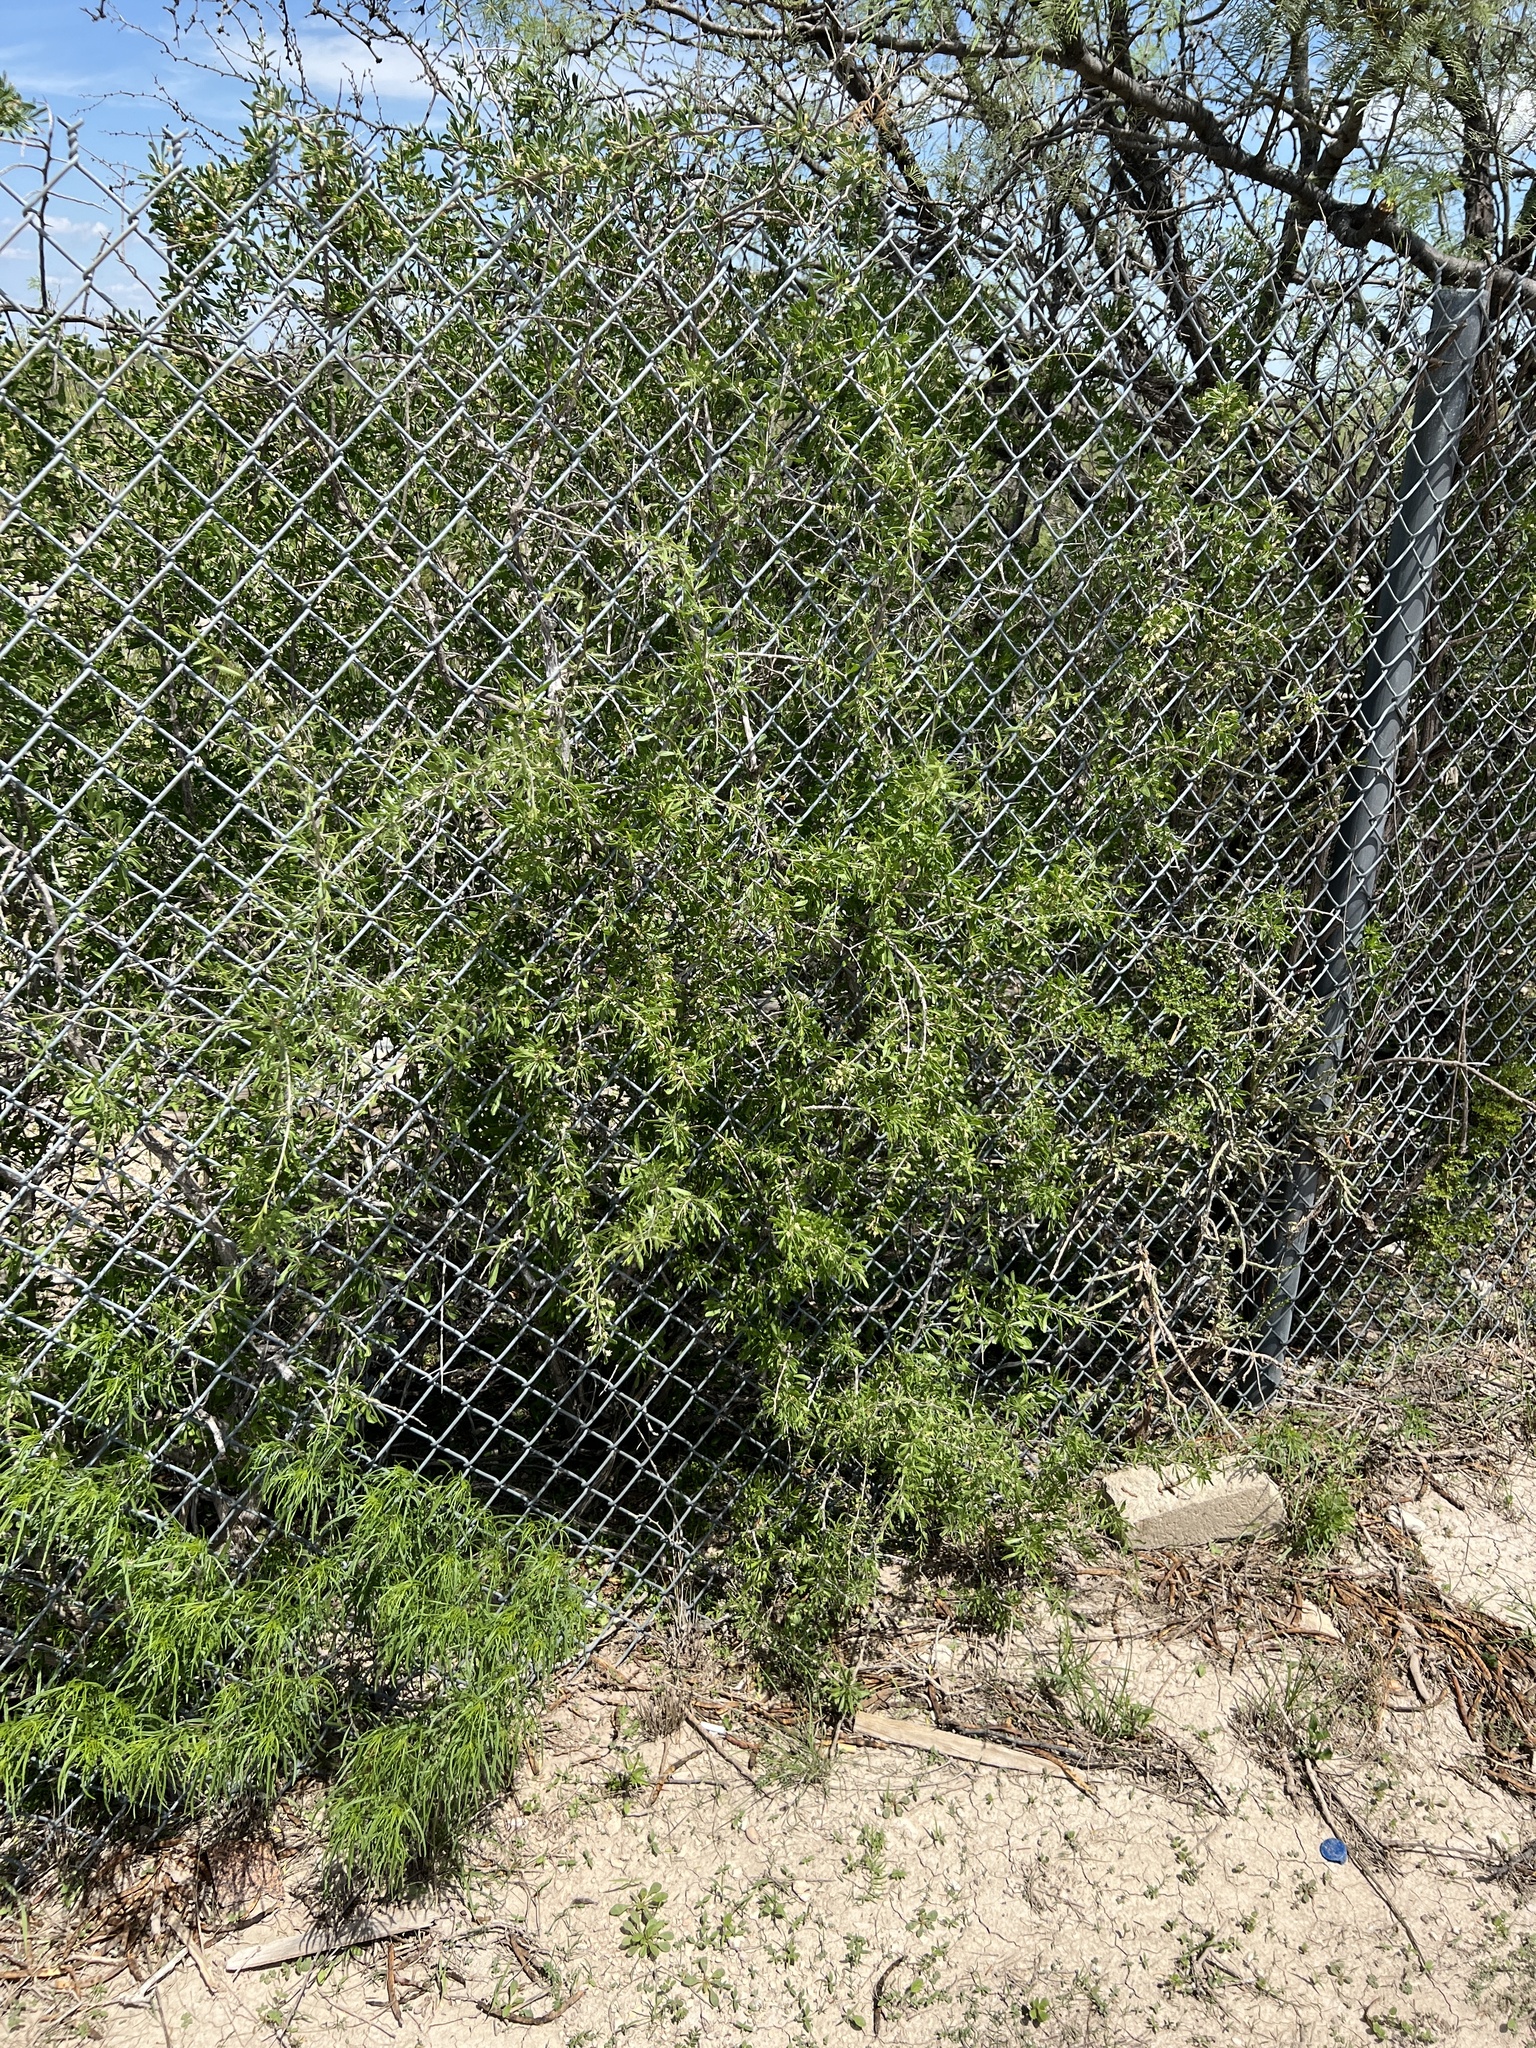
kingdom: Plantae
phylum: Tracheophyta
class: Magnoliopsida
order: Solanales
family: Solanaceae
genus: Lycium
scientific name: Lycium berlandieri
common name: Berlandier wolfberry
